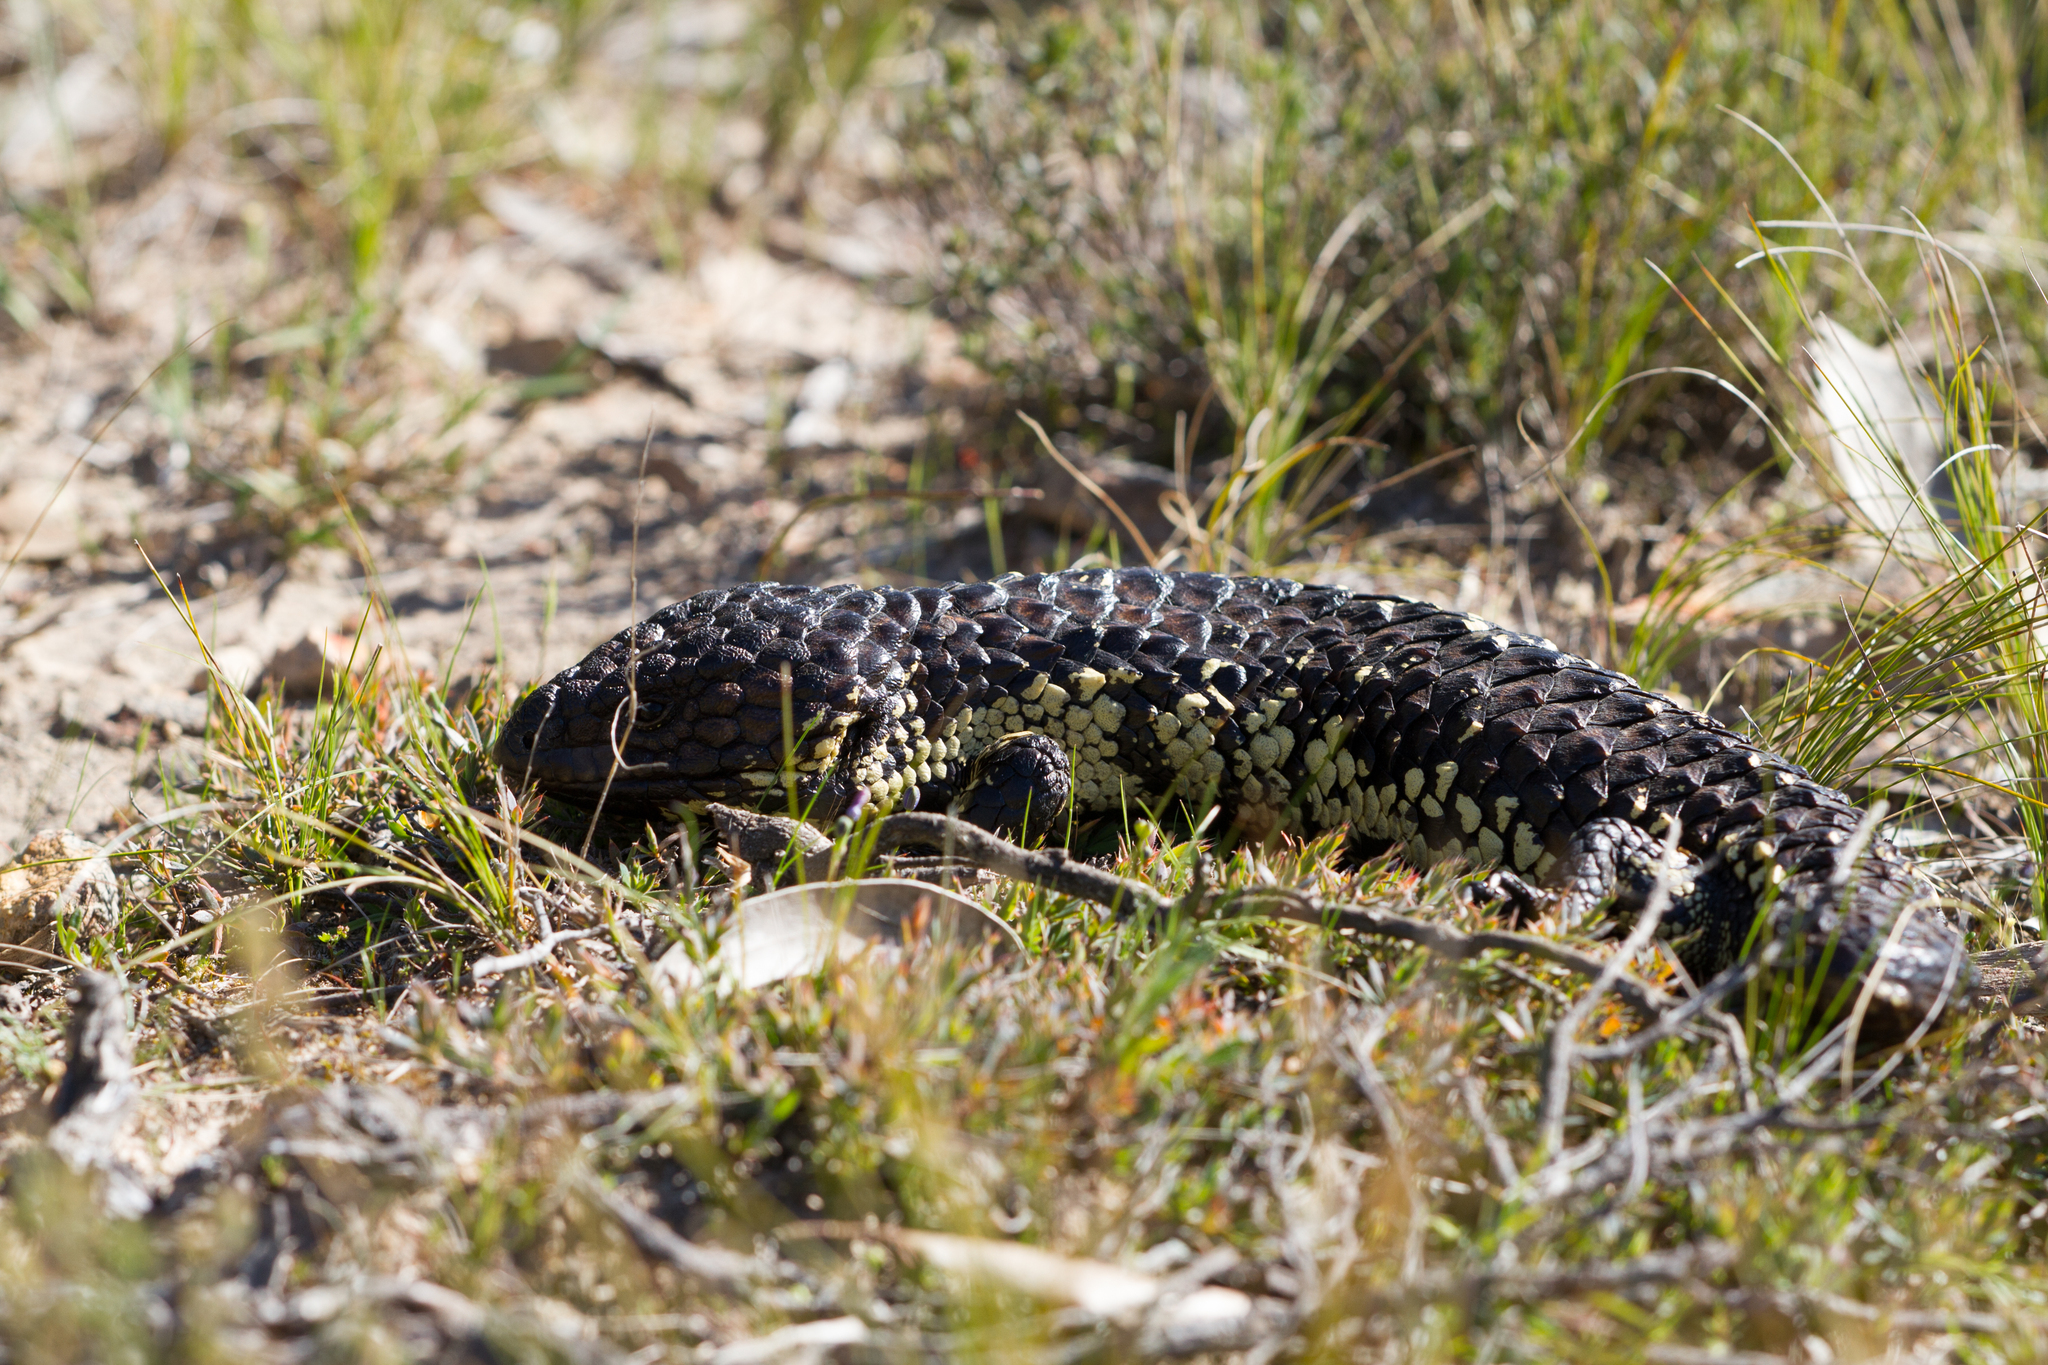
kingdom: Animalia
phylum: Chordata
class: Squamata
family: Scincidae
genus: Tiliqua
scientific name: Tiliqua rugosa
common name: Pinecone lizard
